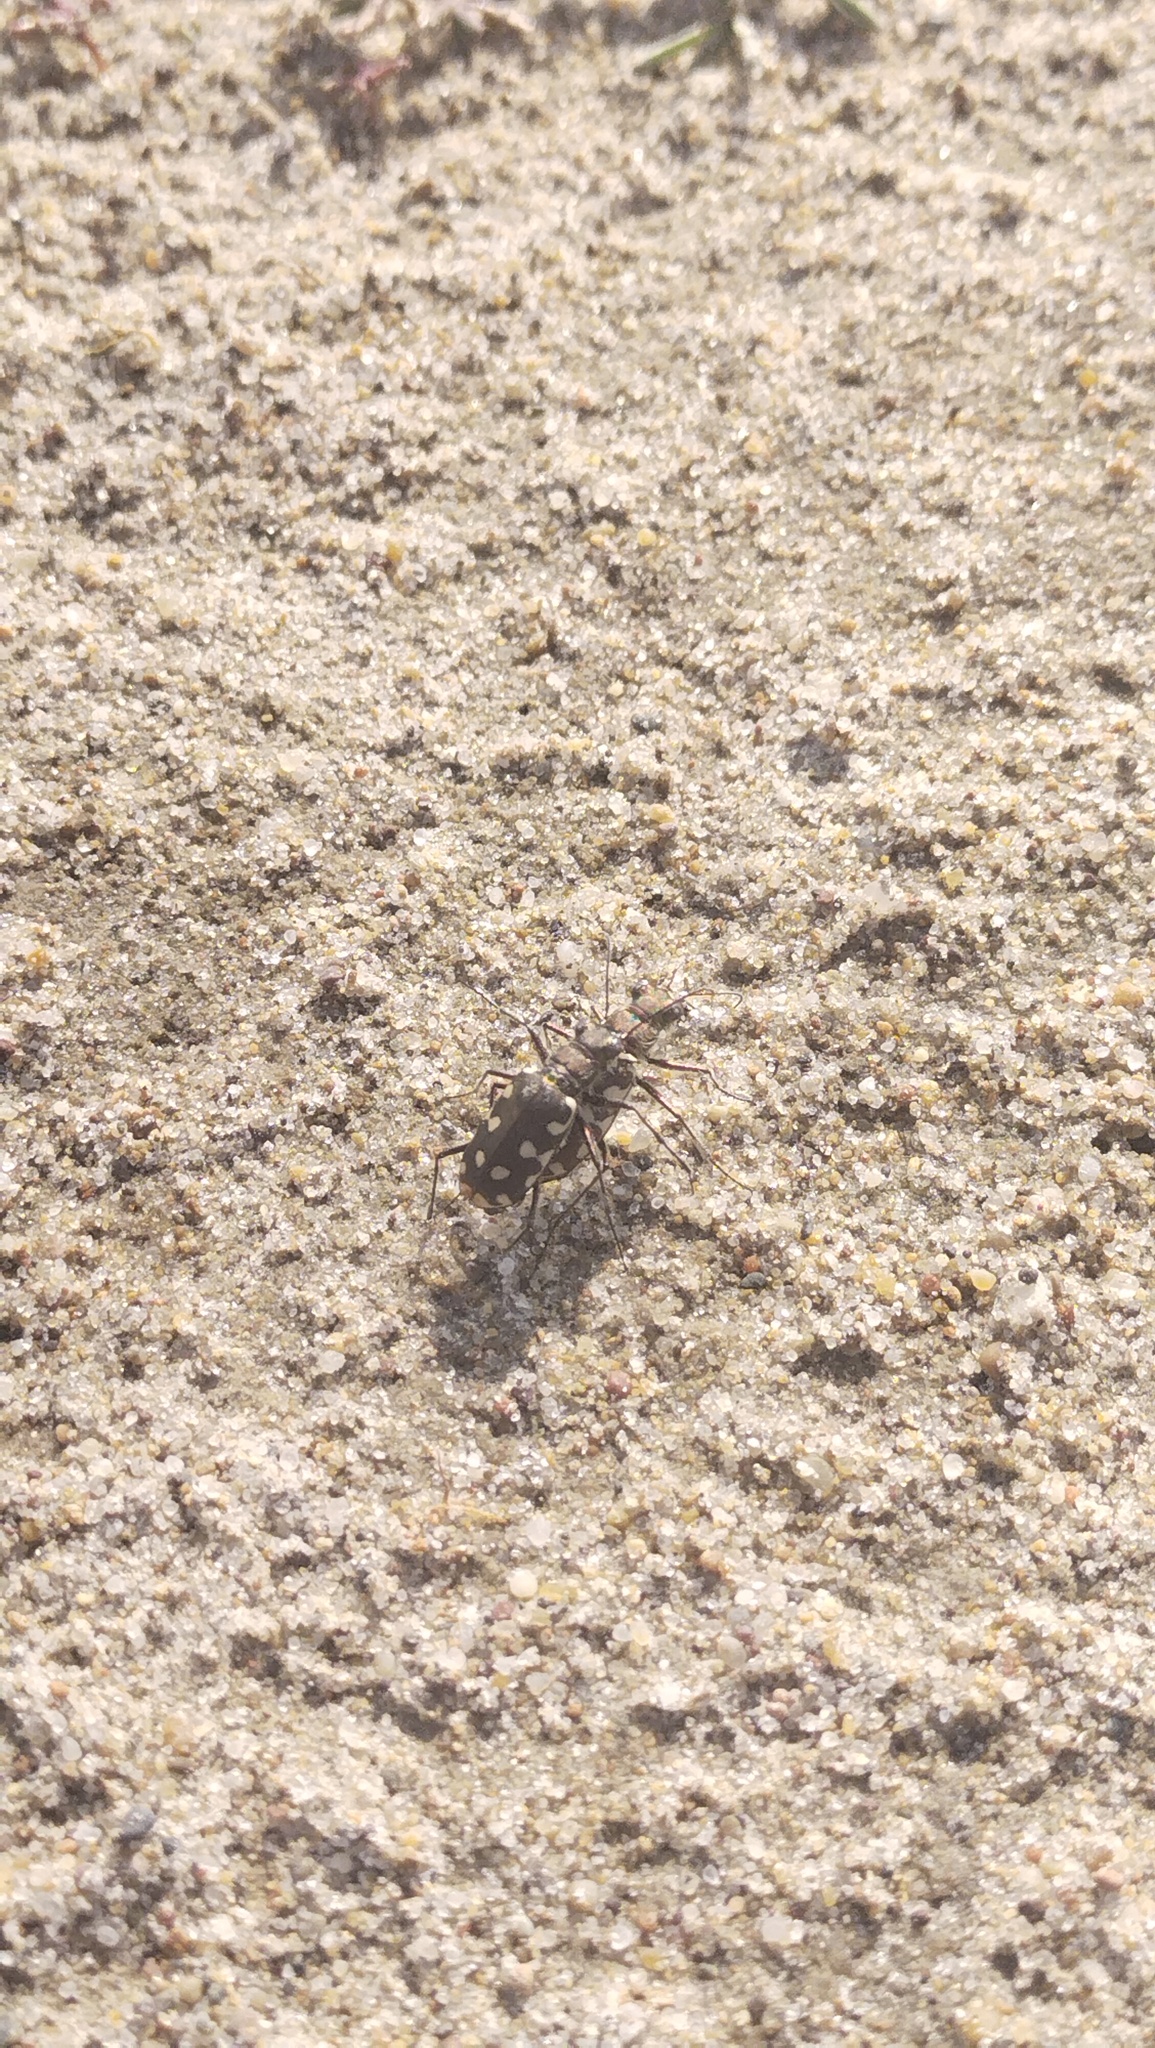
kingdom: Animalia
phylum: Arthropoda
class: Insecta
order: Coleoptera
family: Carabidae
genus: Cicindela
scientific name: Cicindela littoralis
